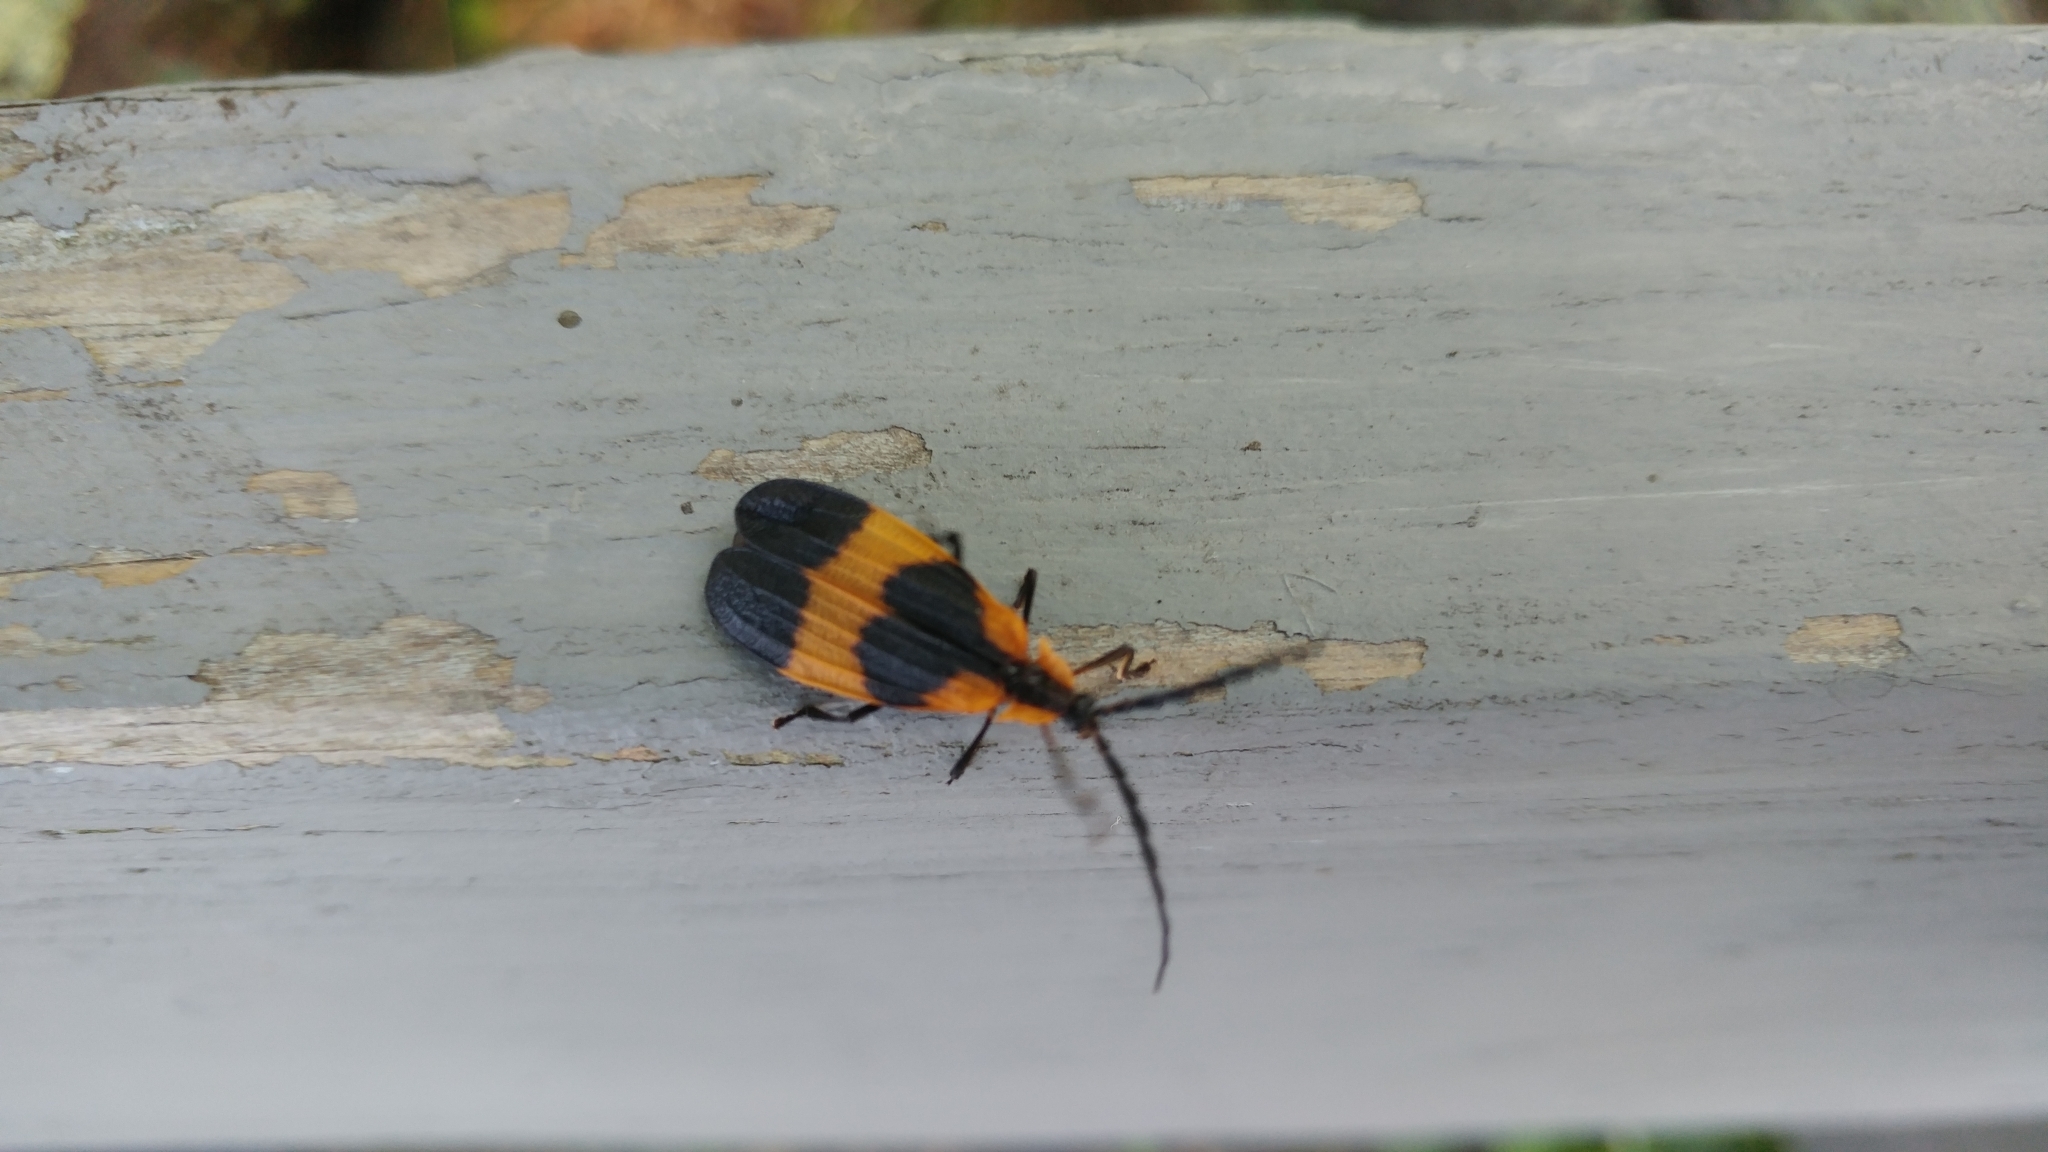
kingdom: Animalia
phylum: Arthropoda
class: Insecta
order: Coleoptera
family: Lycidae
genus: Calopteron
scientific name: Calopteron reticulatum
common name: Banded net-winged beetle
